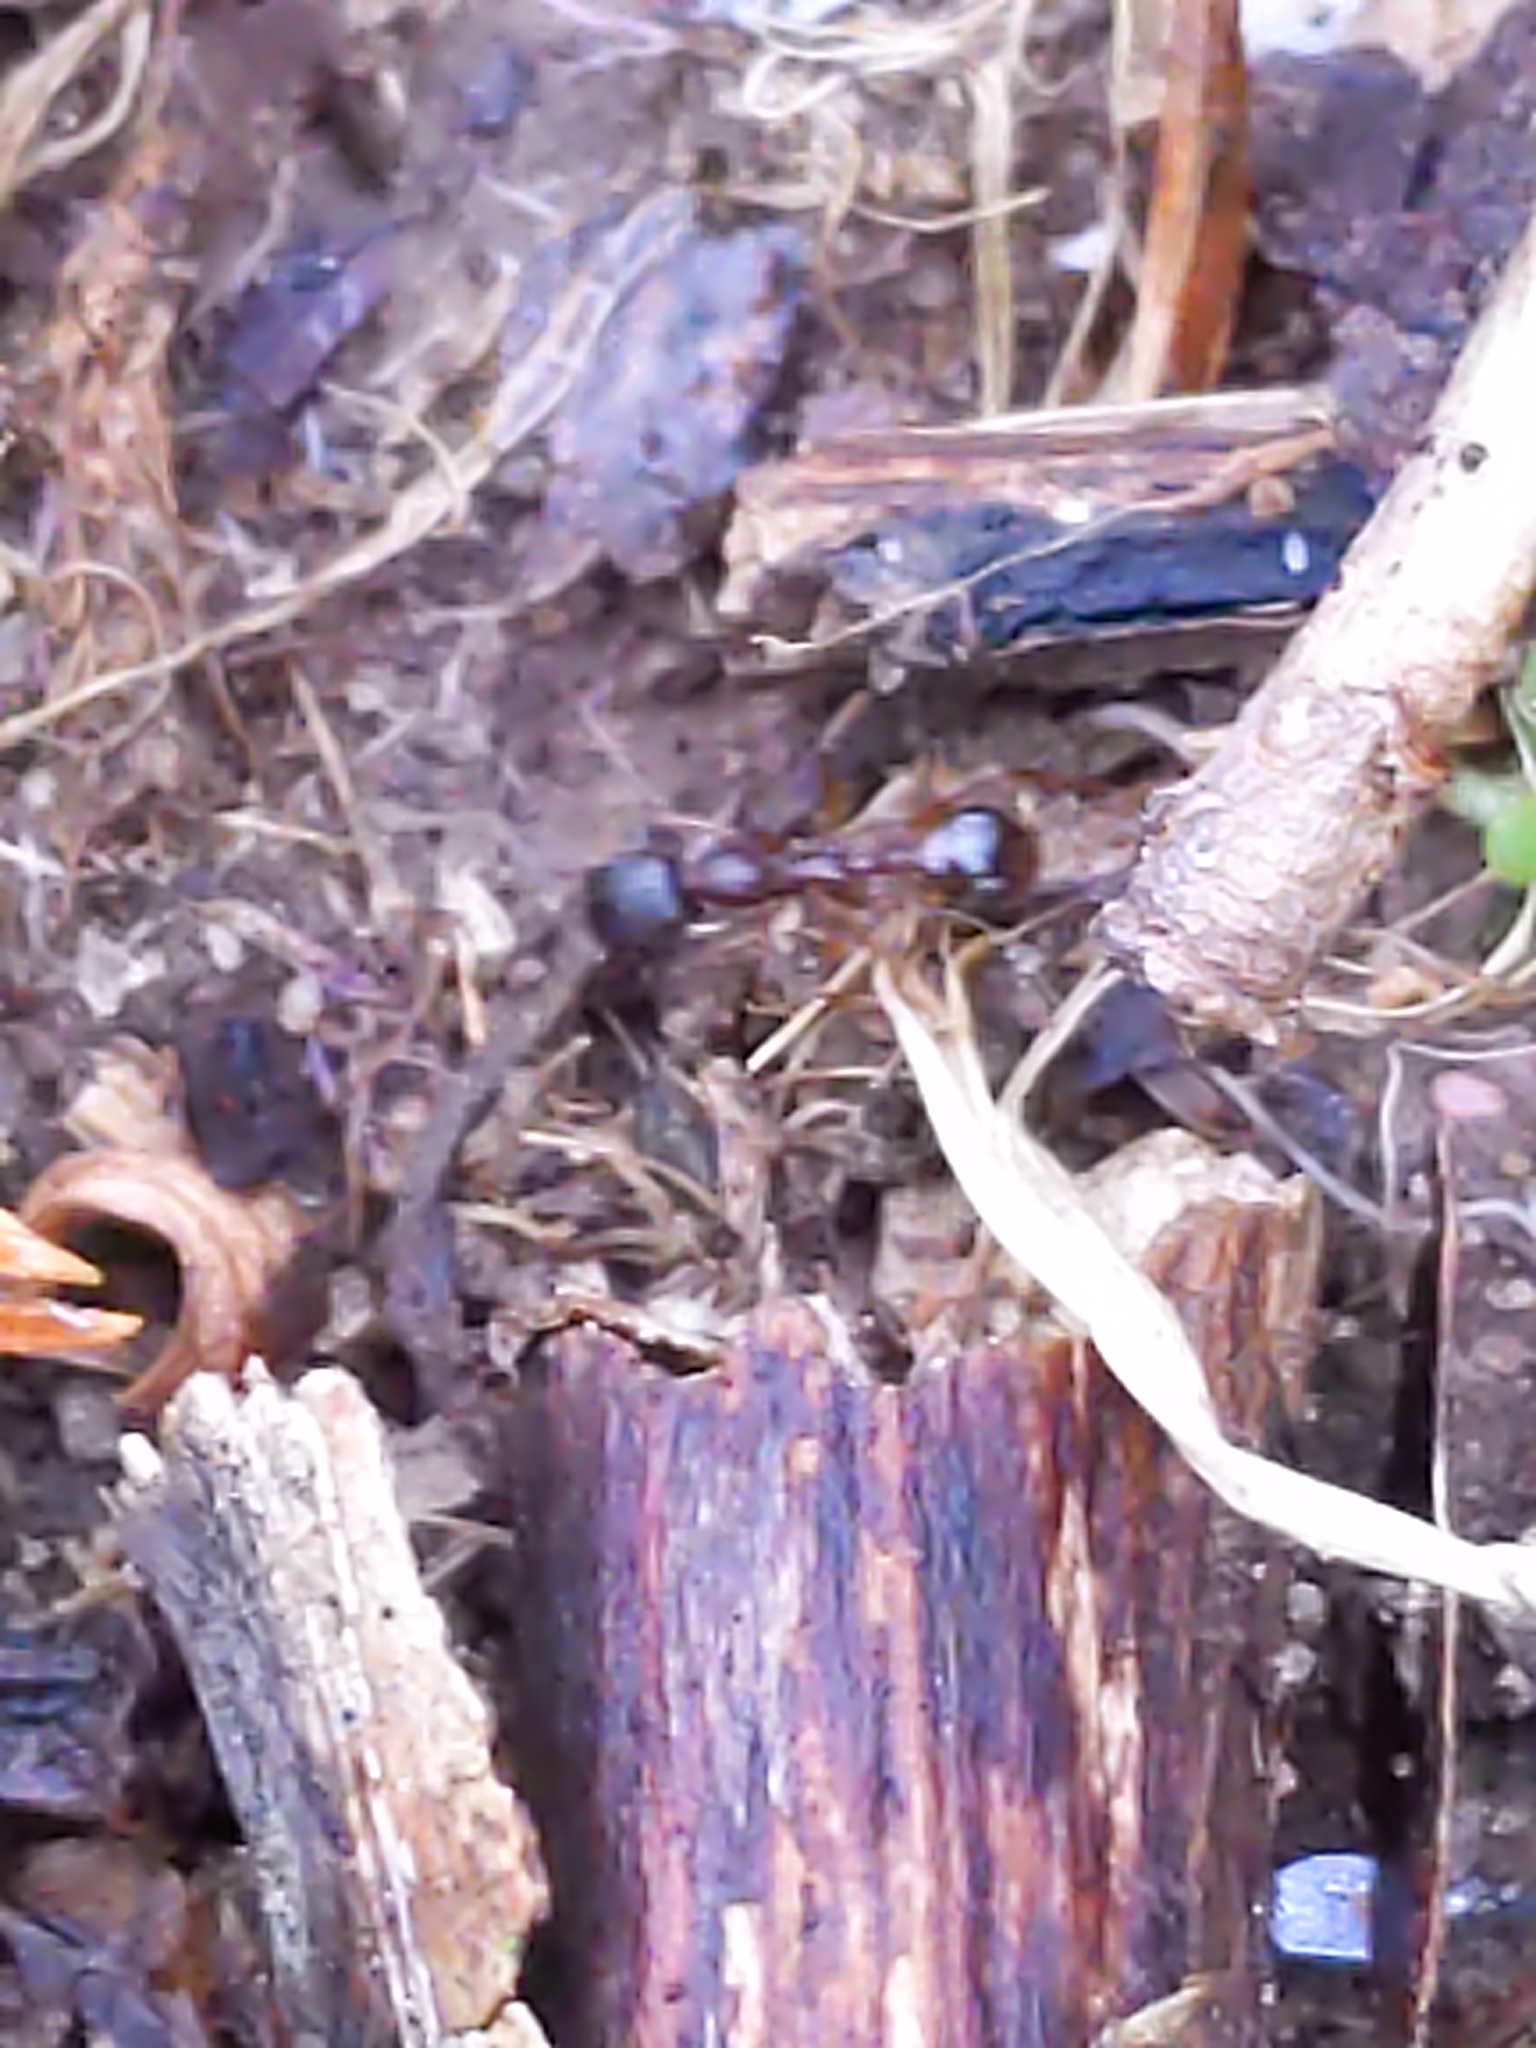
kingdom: Animalia
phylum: Arthropoda
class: Insecta
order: Hymenoptera
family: Formicidae
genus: Aphaenogaster
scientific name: Aphaenogaster
